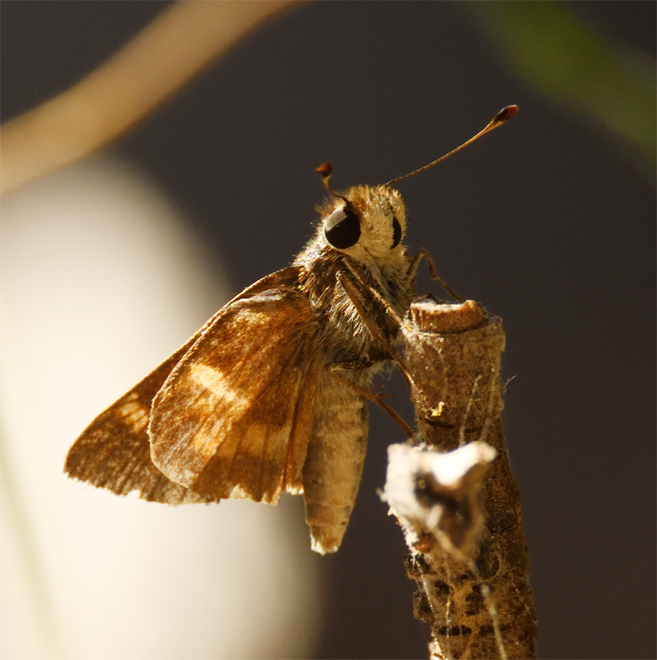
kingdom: Animalia
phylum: Arthropoda
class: Insecta
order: Lepidoptera
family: Hesperiidae
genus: Lon
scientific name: Lon melane
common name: Umber skipper
